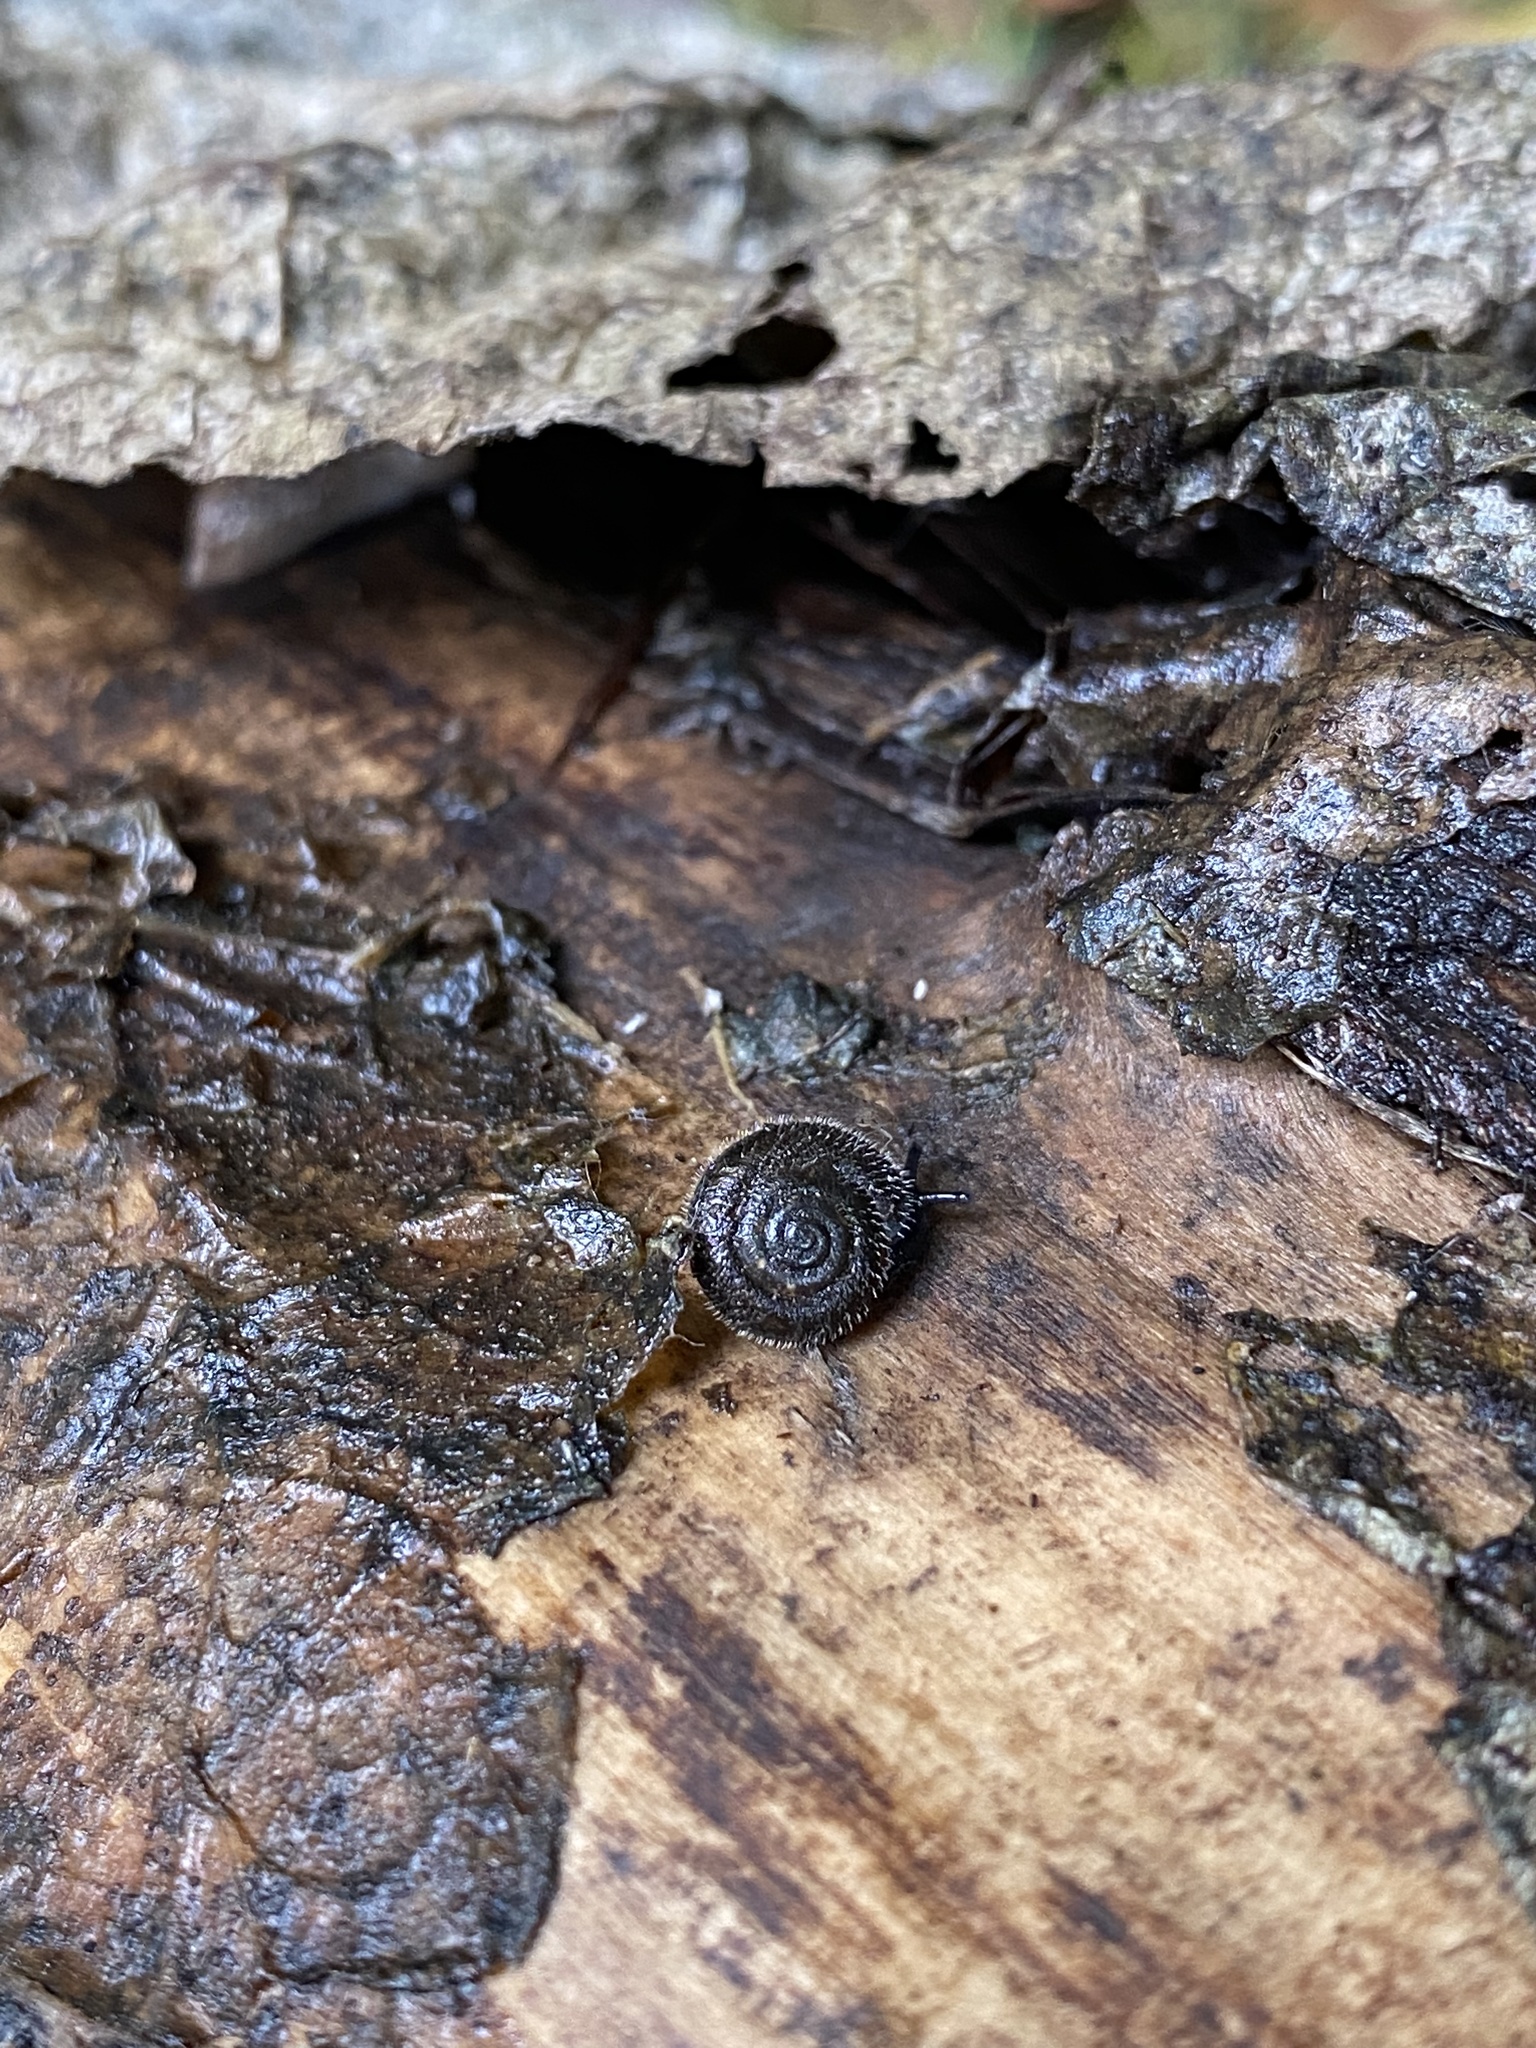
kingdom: Animalia
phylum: Mollusca
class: Gastropoda
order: Stylommatophora
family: Hygromiidae
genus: Ashfordia
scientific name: Ashfordia granulata
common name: Silky snail
